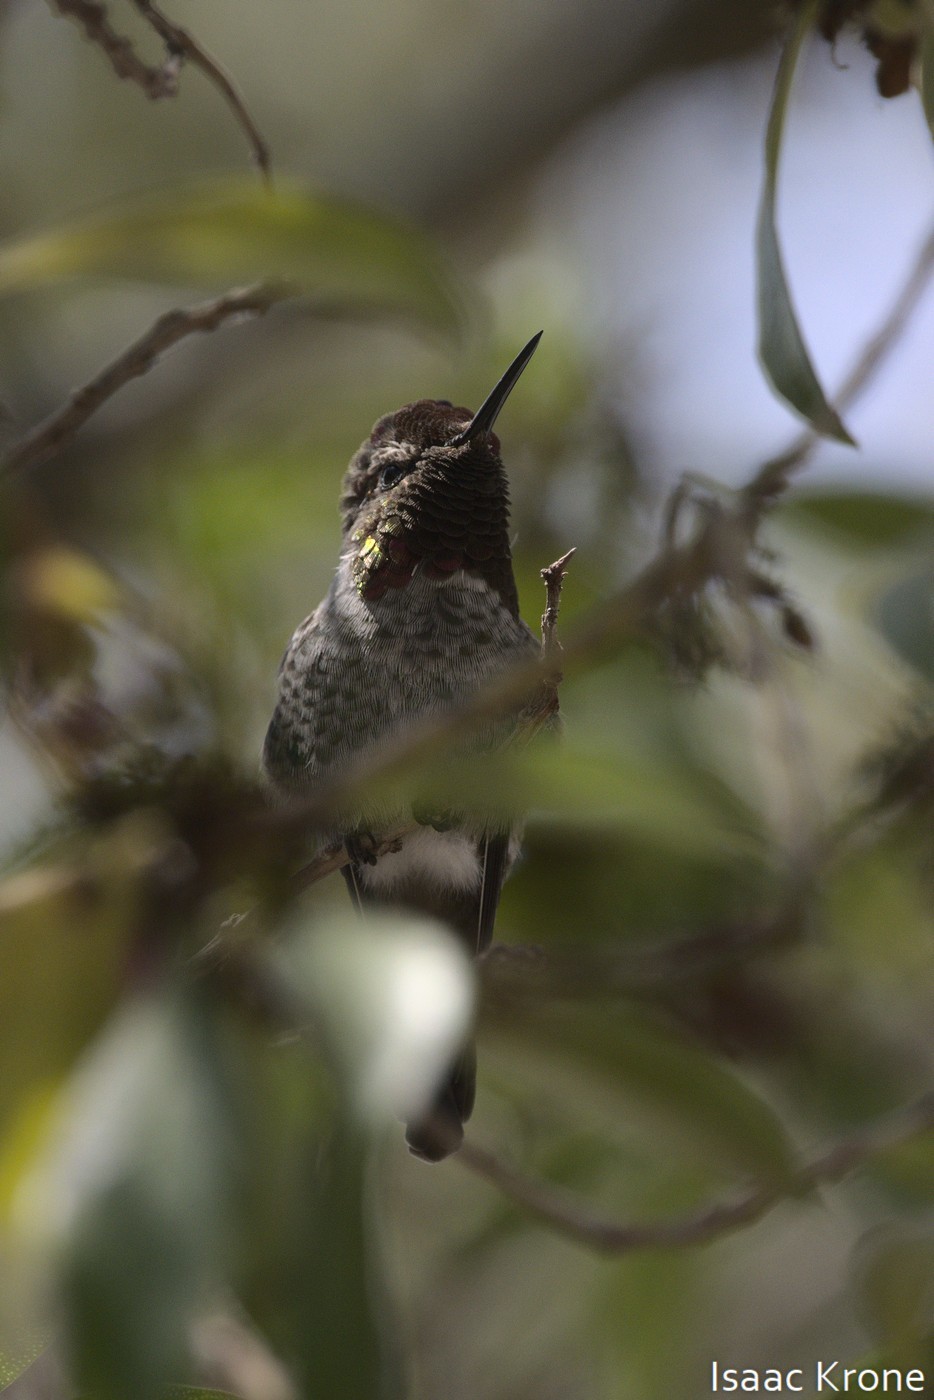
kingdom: Animalia
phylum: Chordata
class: Aves
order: Apodiformes
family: Trochilidae
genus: Calypte
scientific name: Calypte anna
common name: Anna's hummingbird
